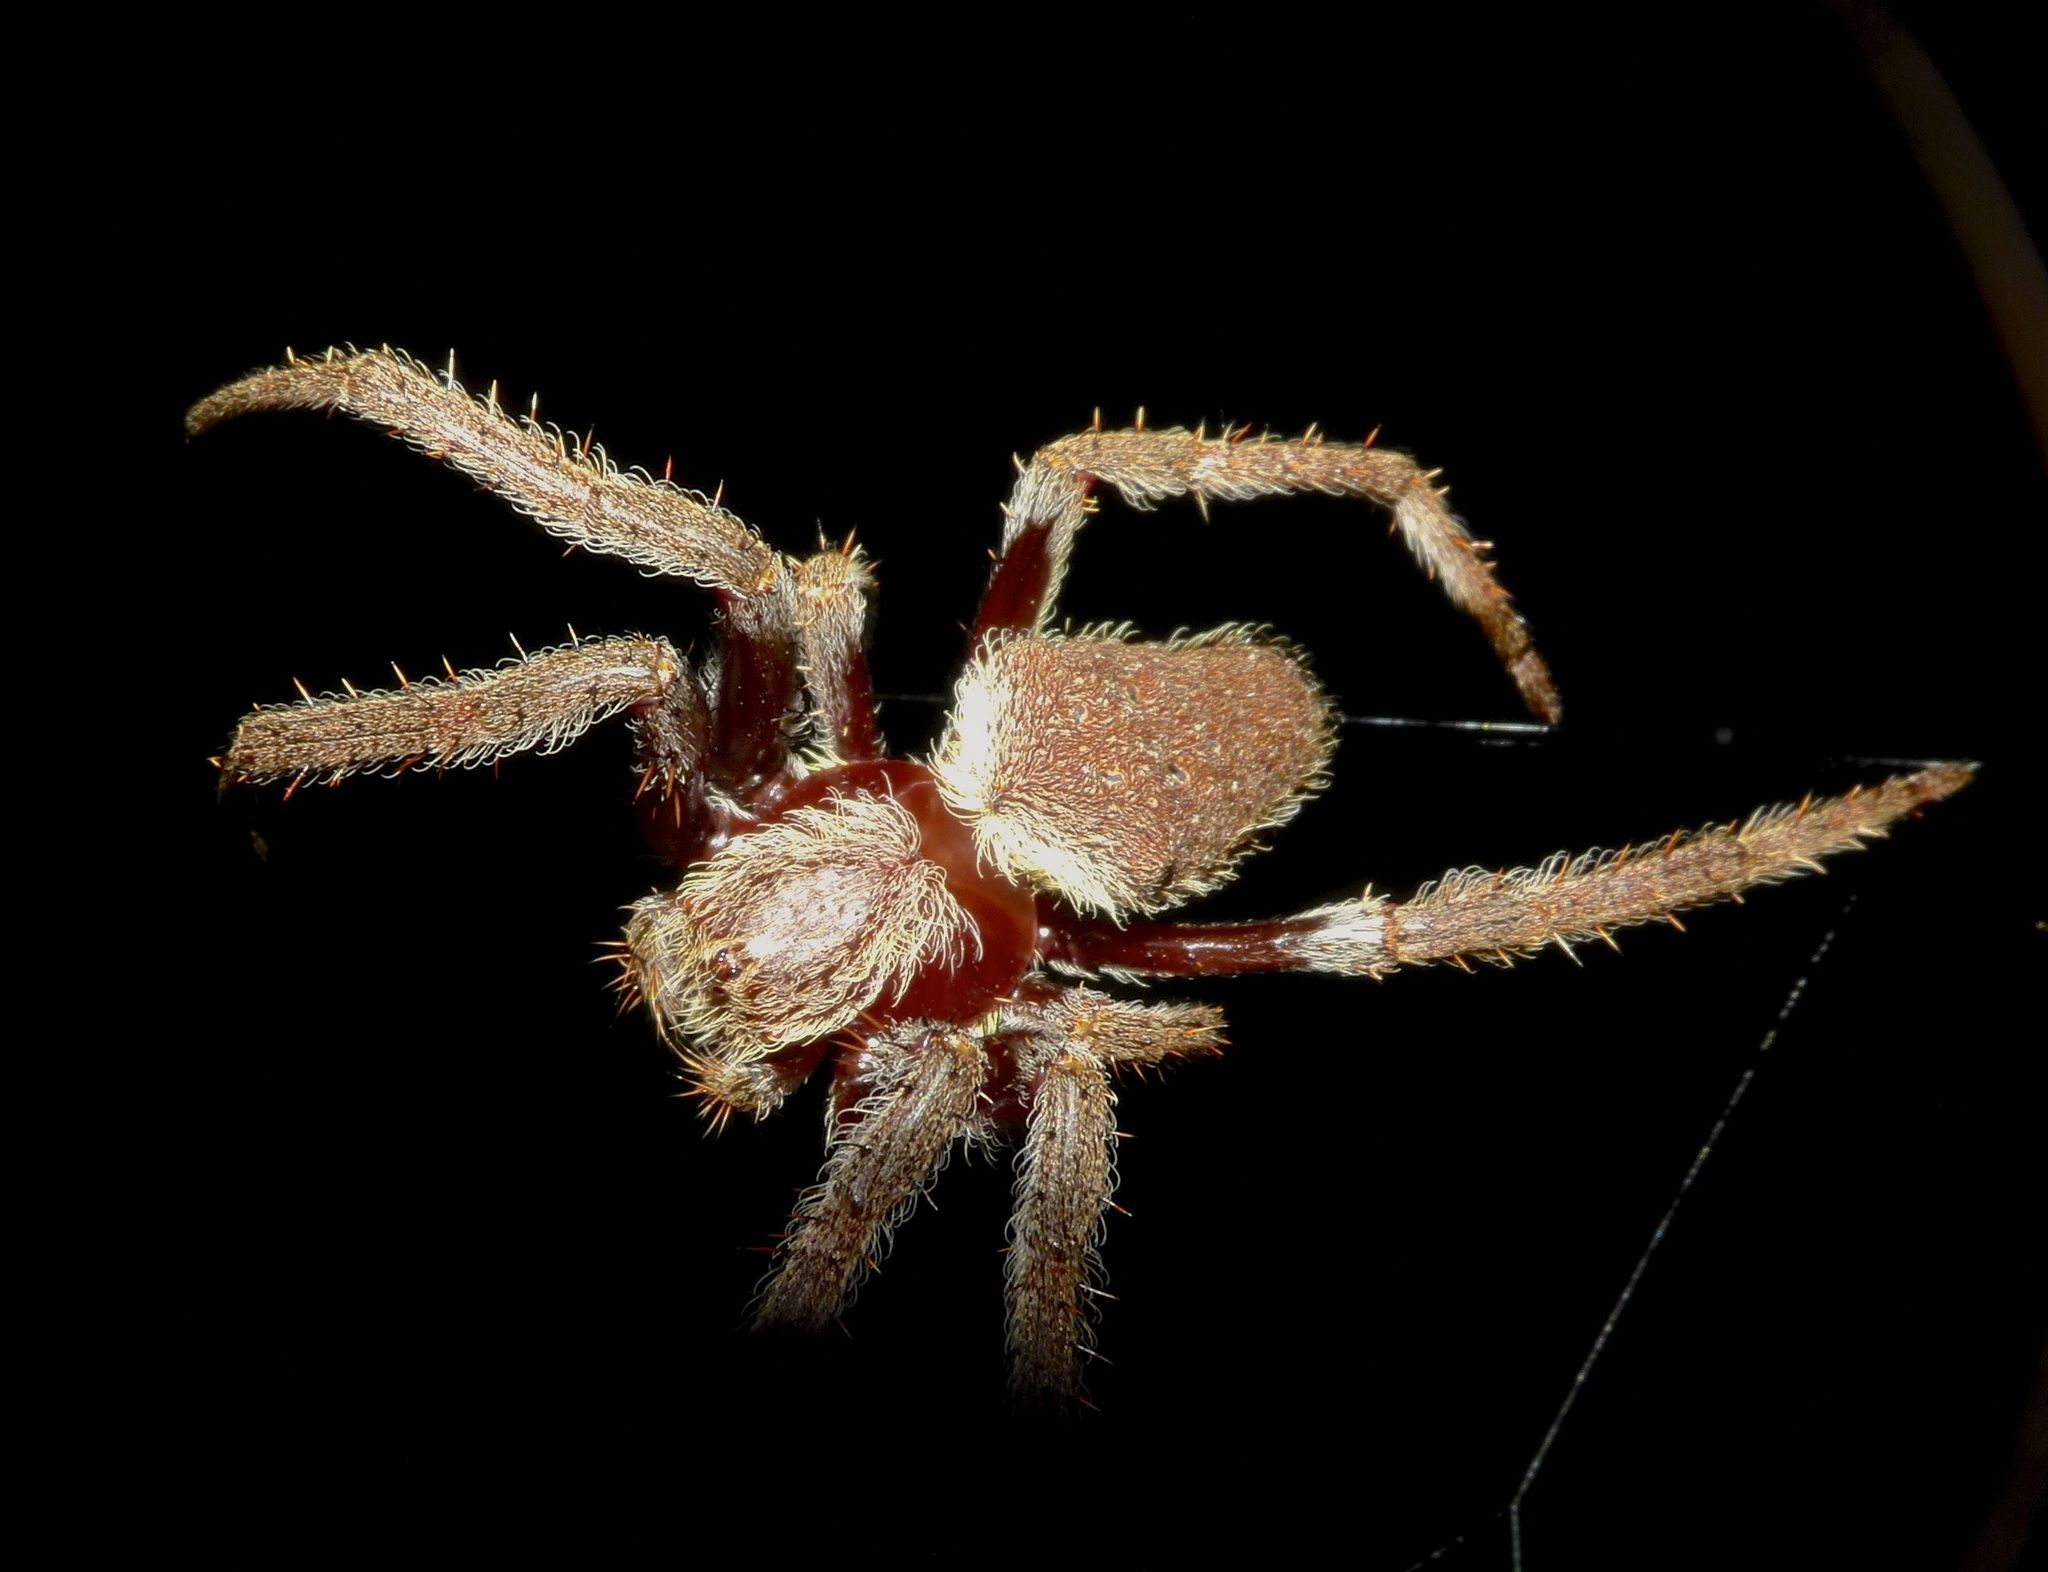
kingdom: Animalia
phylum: Arthropoda
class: Arachnida
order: Araneae
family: Araneidae
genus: Hortophora
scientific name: Hortophora transmarina
